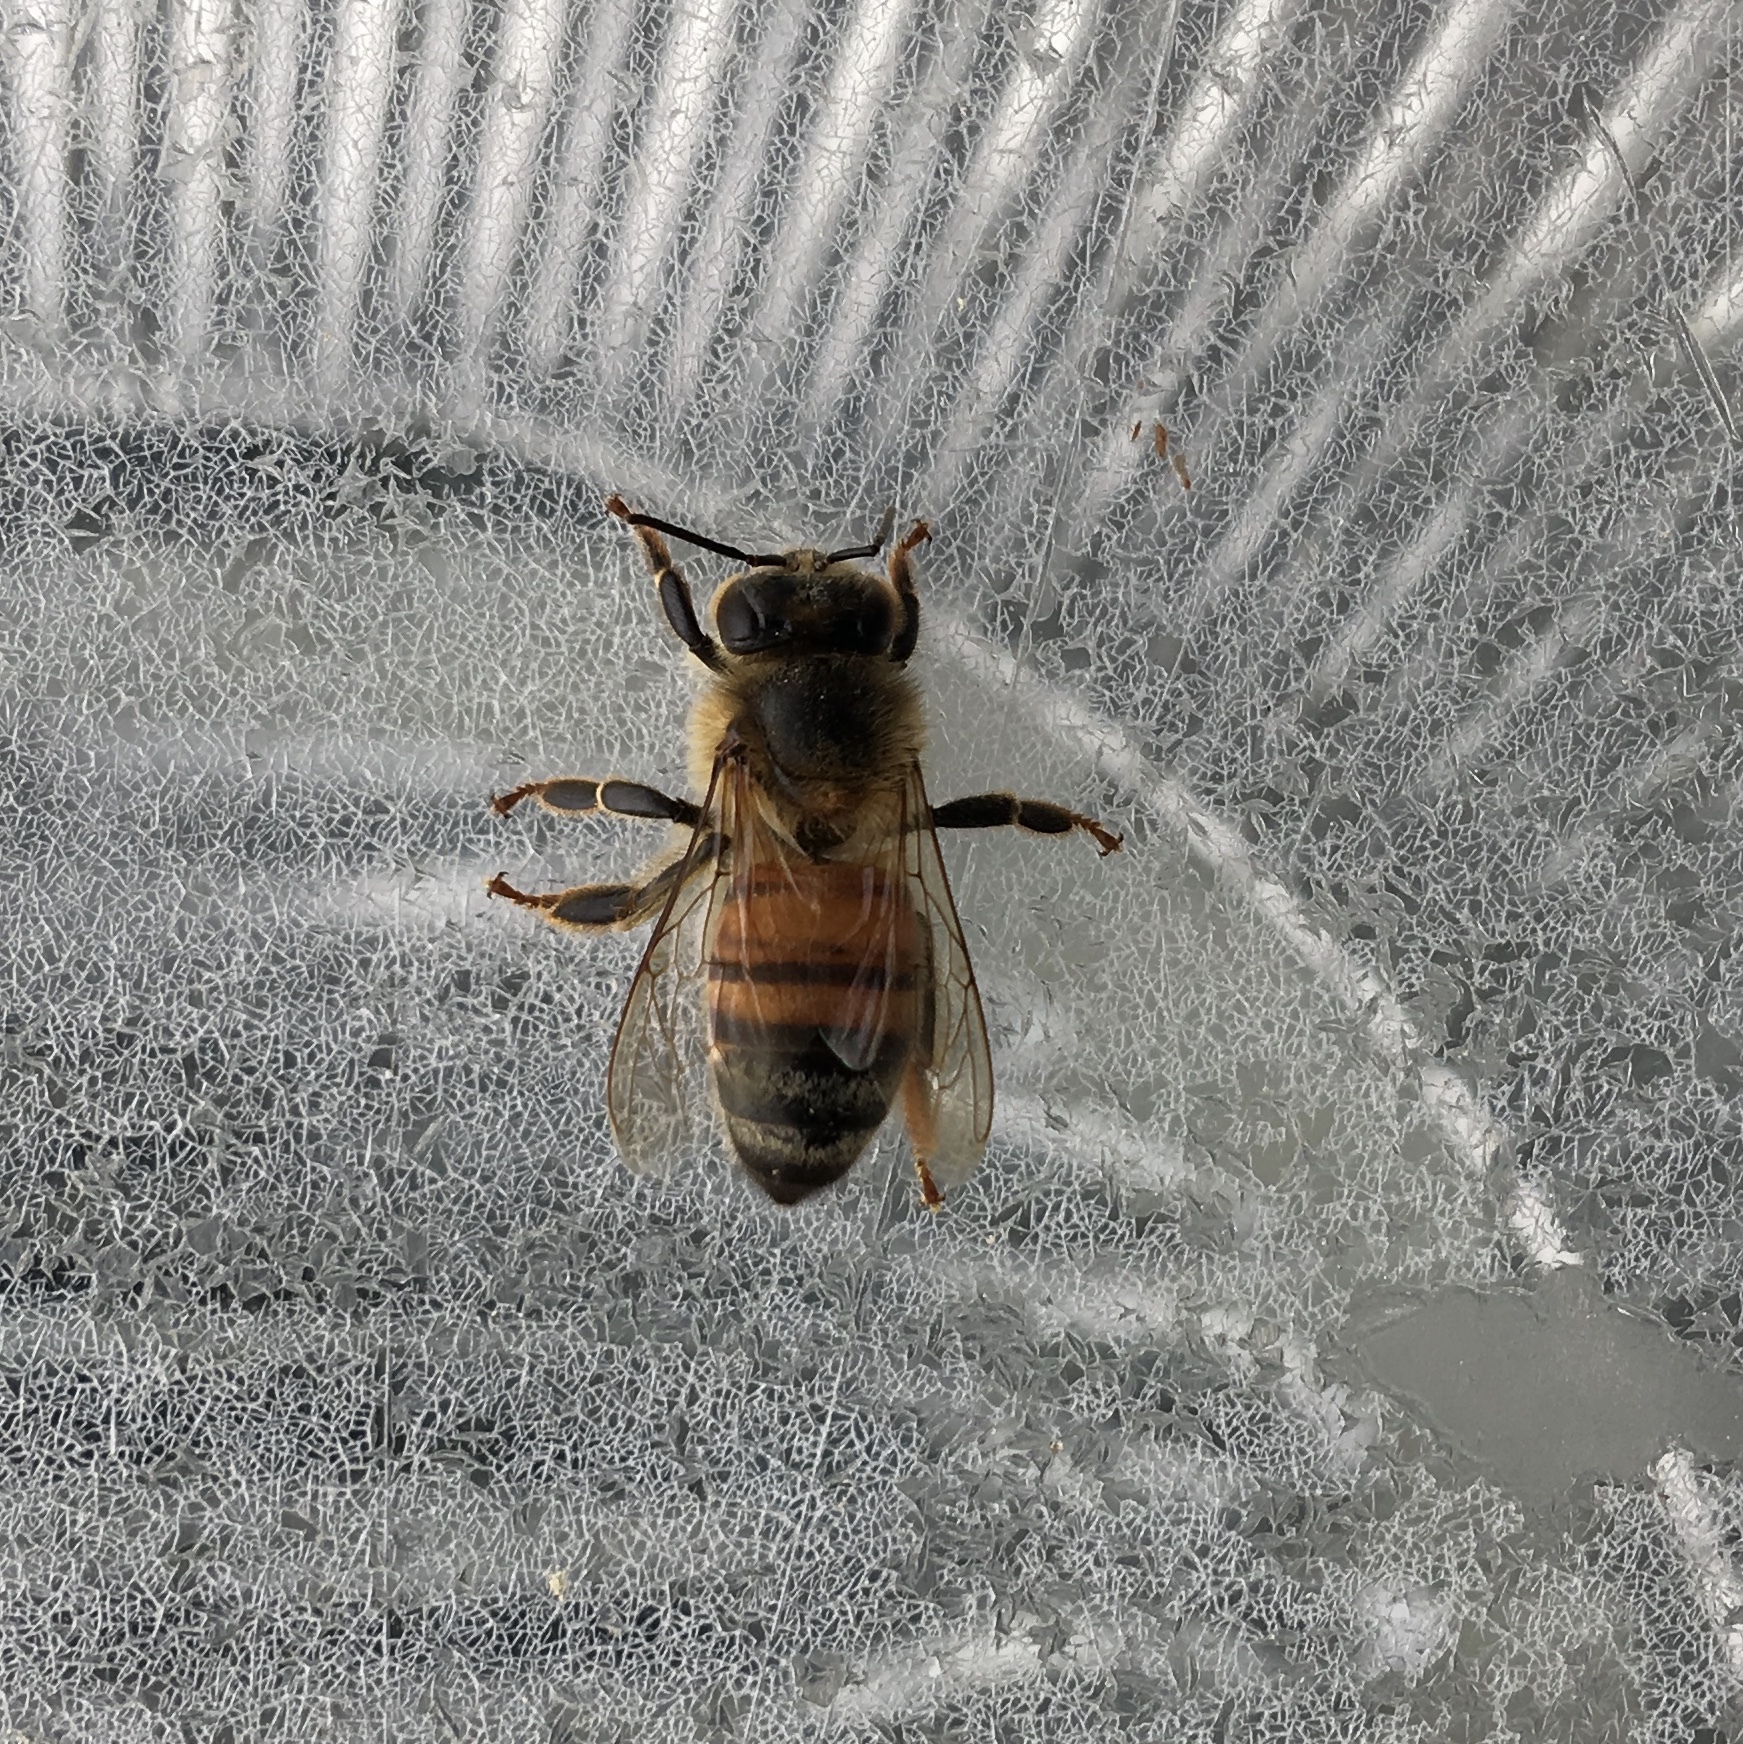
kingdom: Animalia
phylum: Arthropoda
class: Insecta
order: Hymenoptera
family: Apidae
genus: Apis
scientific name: Apis mellifera
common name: Honey bee
